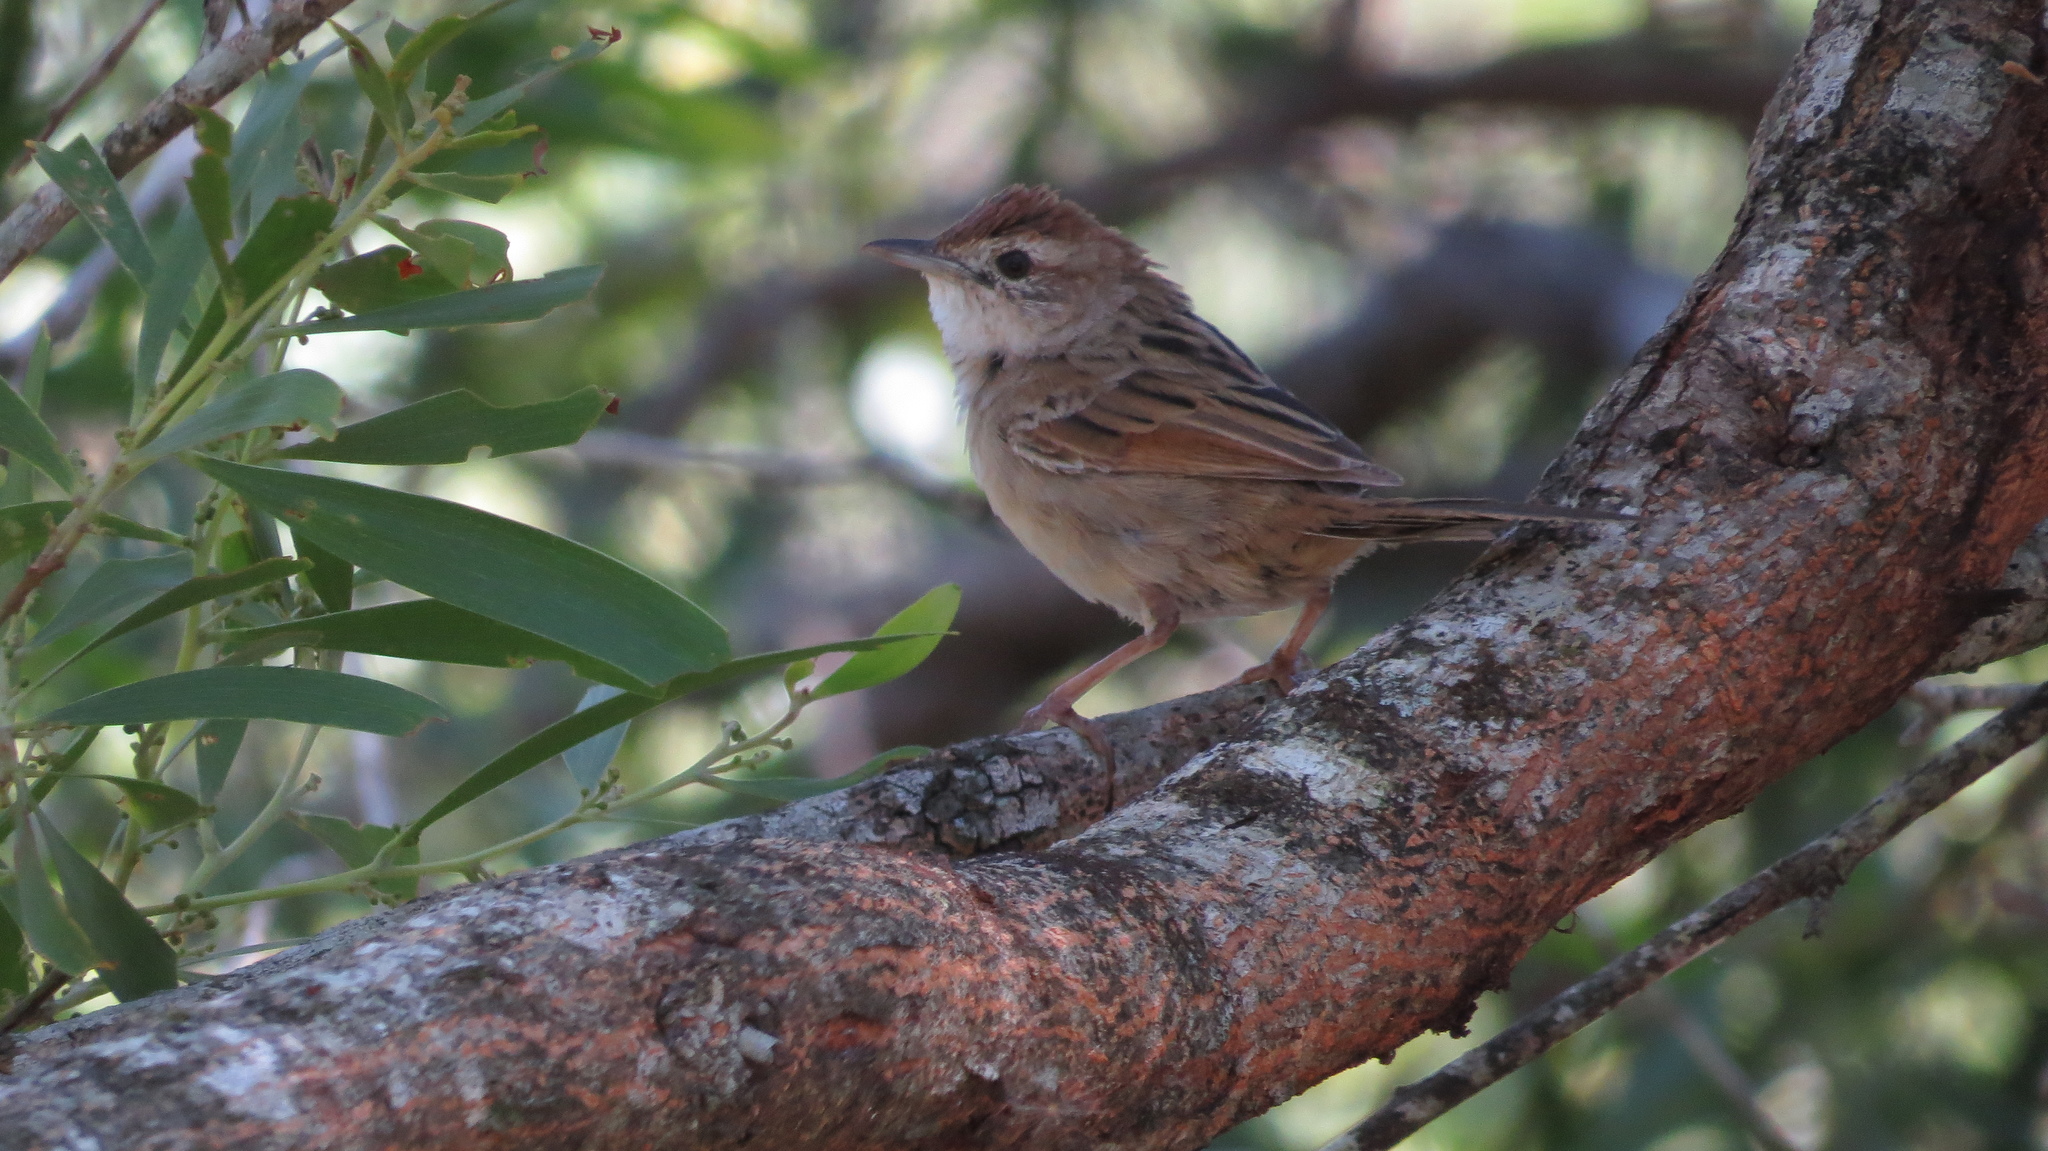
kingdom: Animalia
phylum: Chordata
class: Aves
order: Passeriformes
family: Locustellidae
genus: Megalurus
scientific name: Megalurus timoriensis
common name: Tawny grassbird
